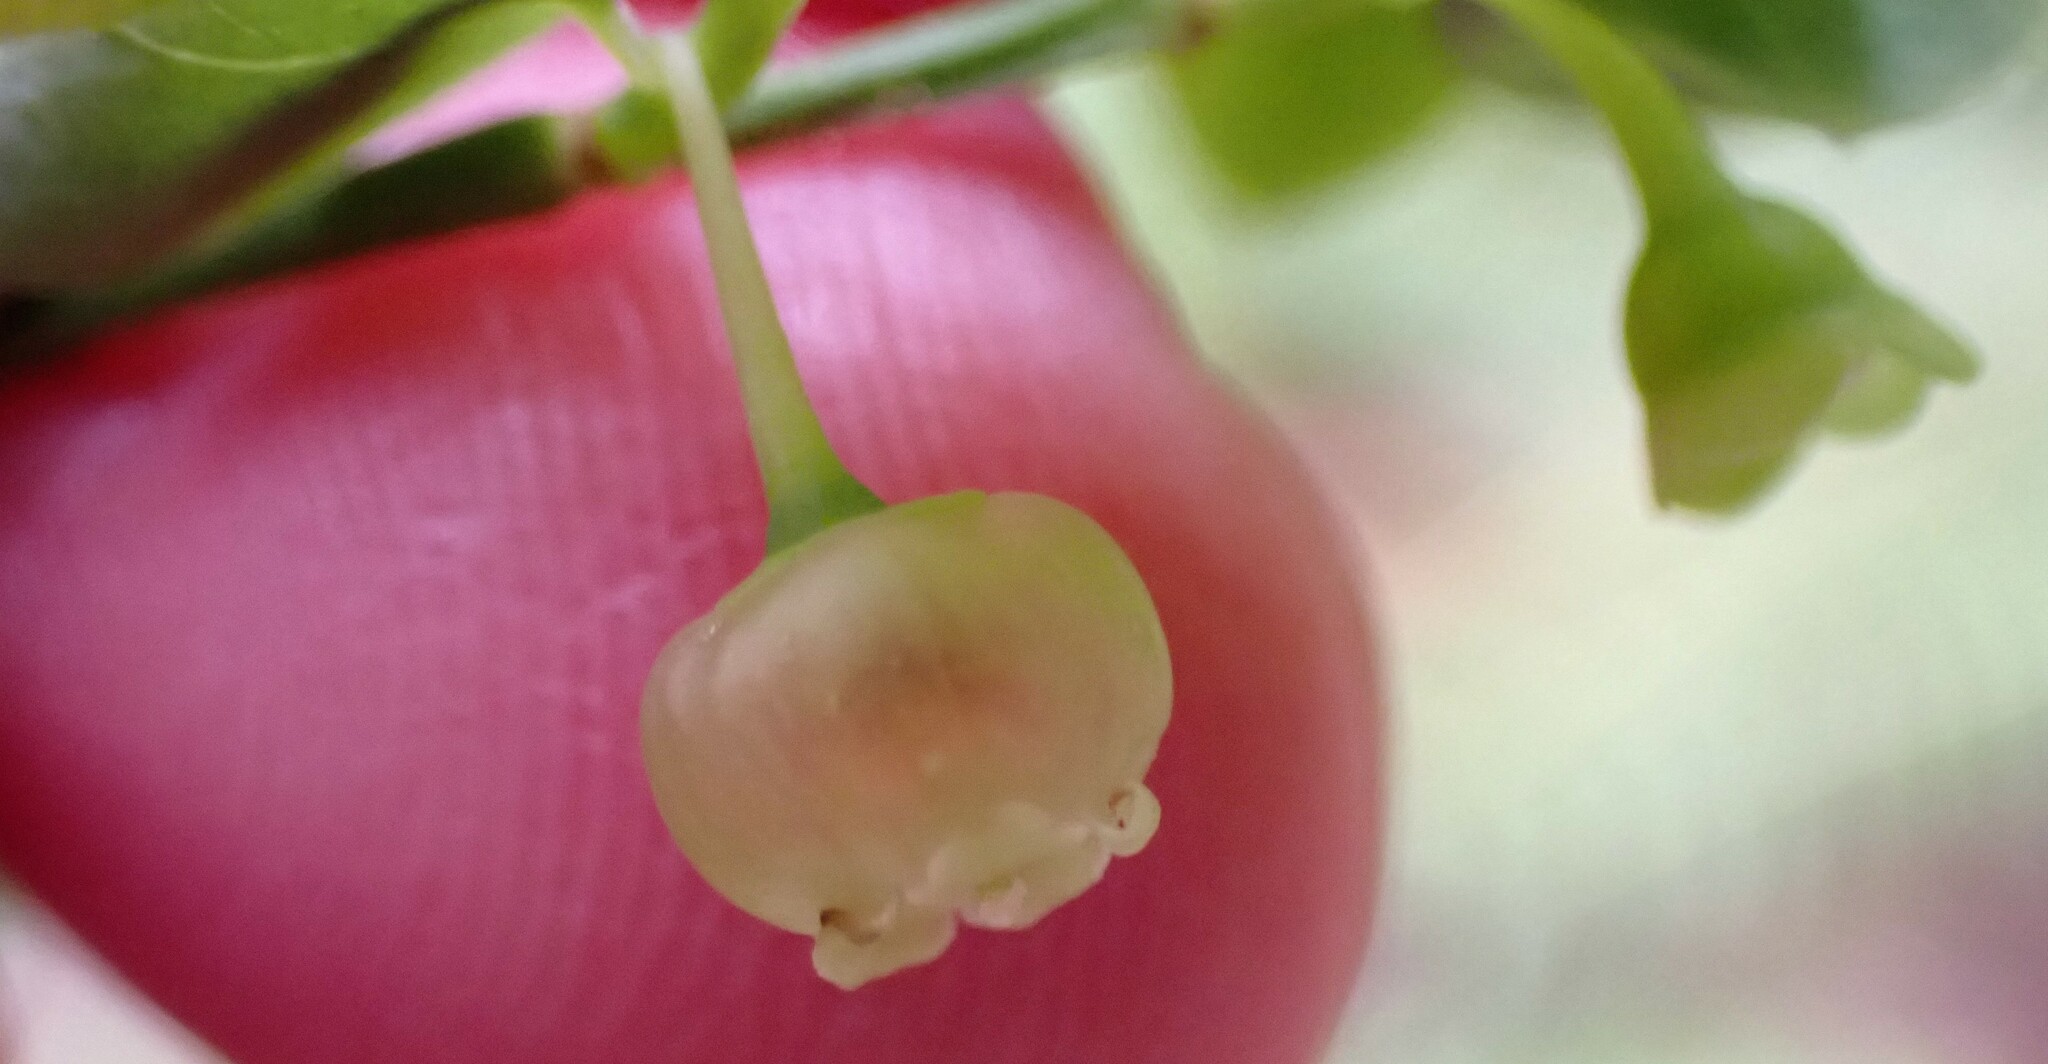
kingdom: Plantae
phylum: Tracheophyta
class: Magnoliopsida
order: Ericales
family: Ericaceae
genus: Vaccinium
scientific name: Vaccinium parvifolium
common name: Red-huckleberry
